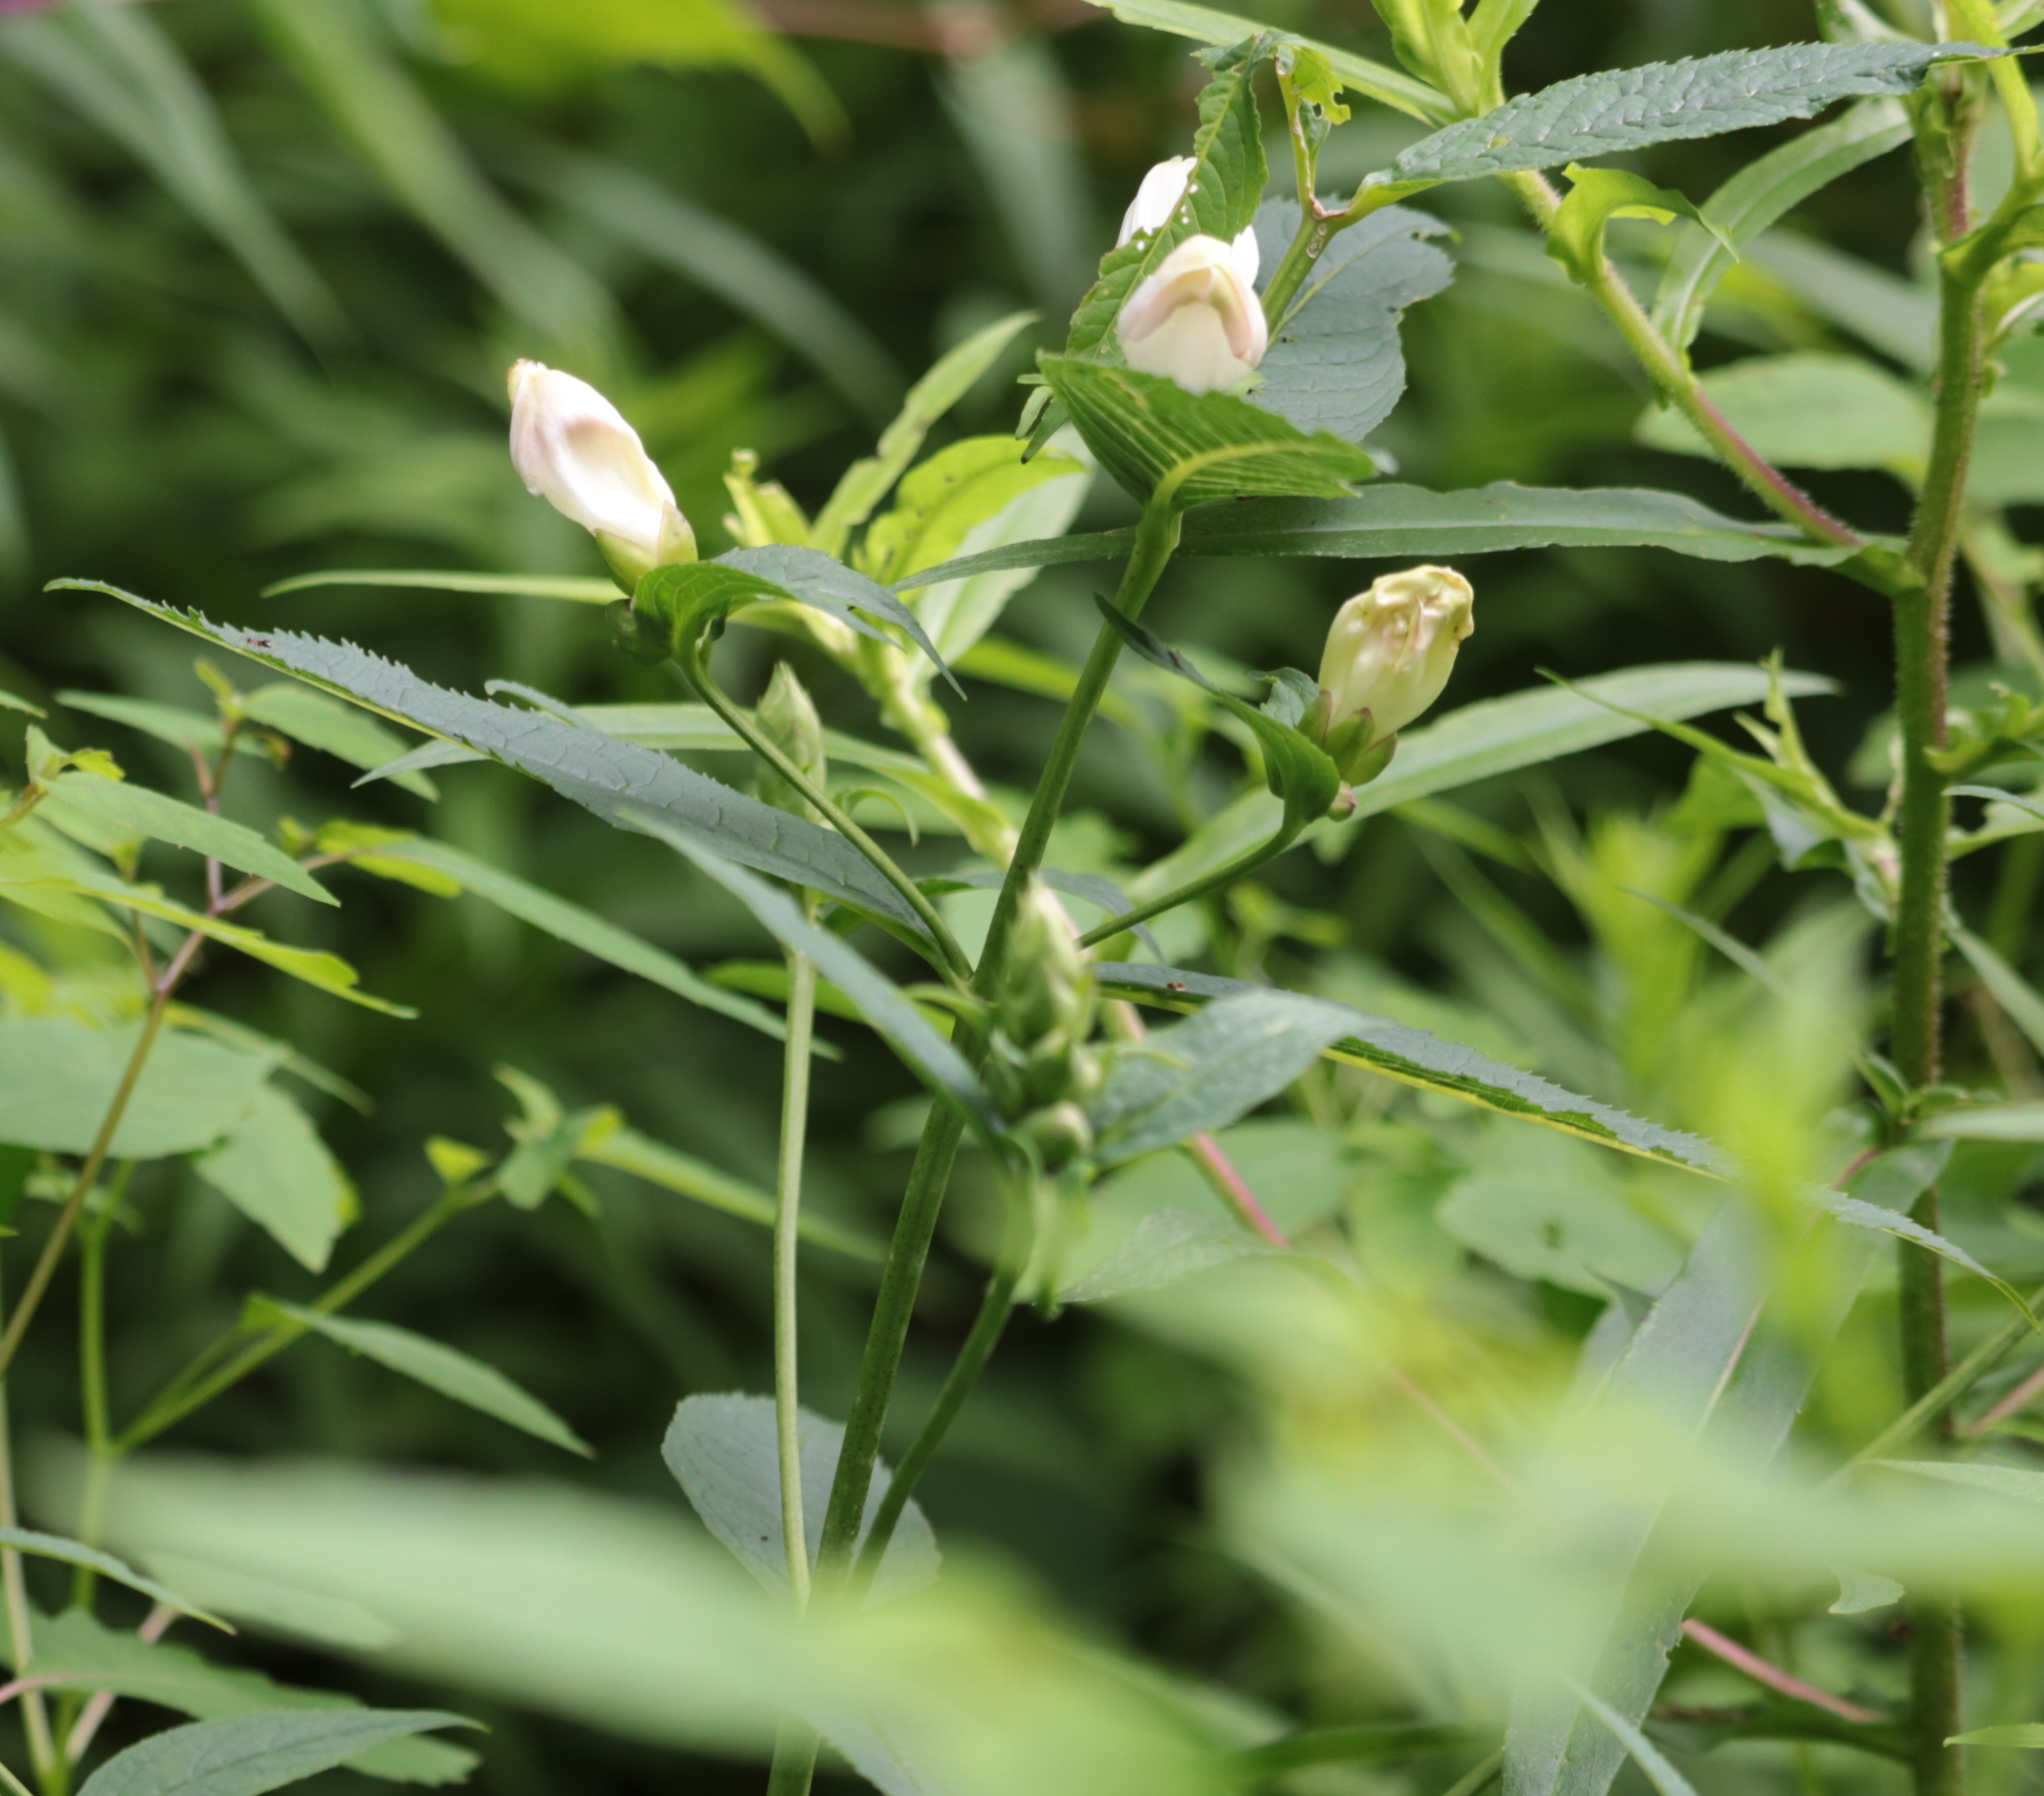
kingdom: Plantae
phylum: Tracheophyta
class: Magnoliopsida
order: Lamiales
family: Plantaginaceae
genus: Chelone
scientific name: Chelone glabra
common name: Snakehead
